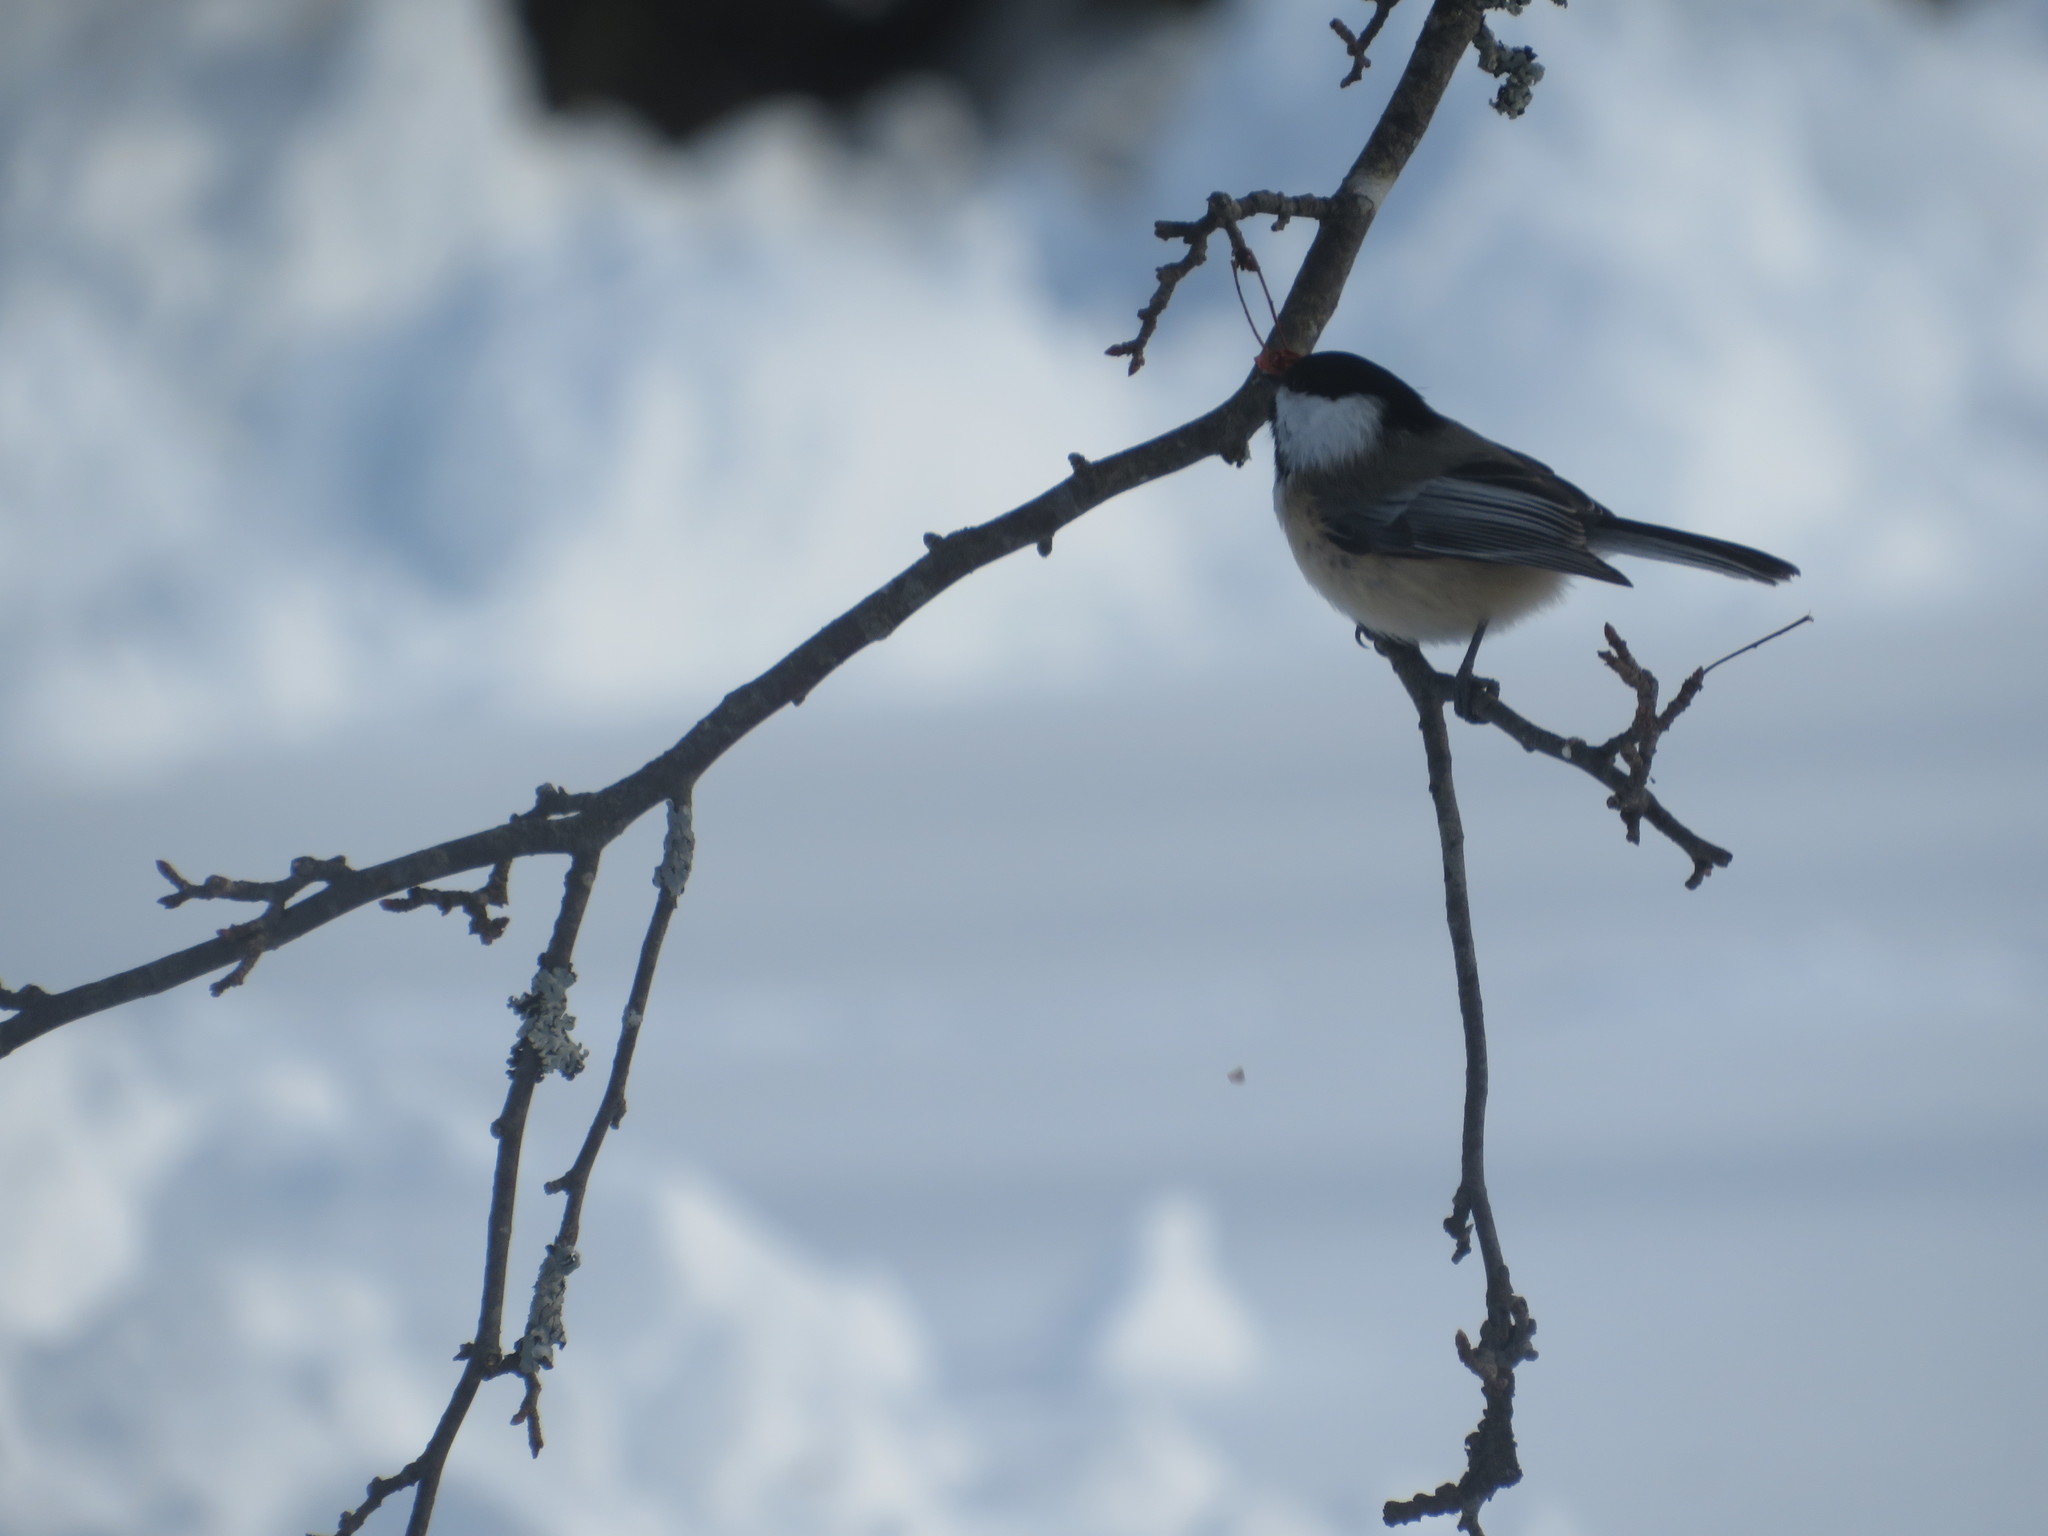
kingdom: Animalia
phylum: Chordata
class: Aves
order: Passeriformes
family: Paridae
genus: Poecile
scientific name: Poecile atricapillus
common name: Black-capped chickadee
